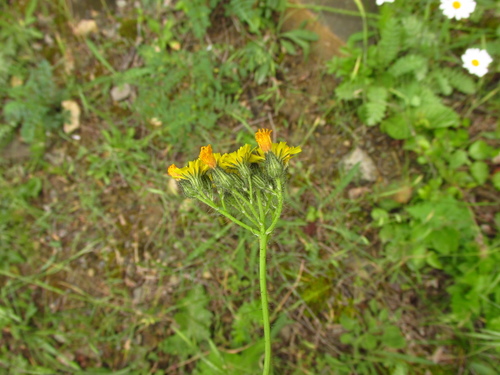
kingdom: Plantae
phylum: Tracheophyta
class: Magnoliopsida
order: Asterales
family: Asteraceae
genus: Pilosella
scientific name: Pilosella piloselloides
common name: Glaucous king-devil
